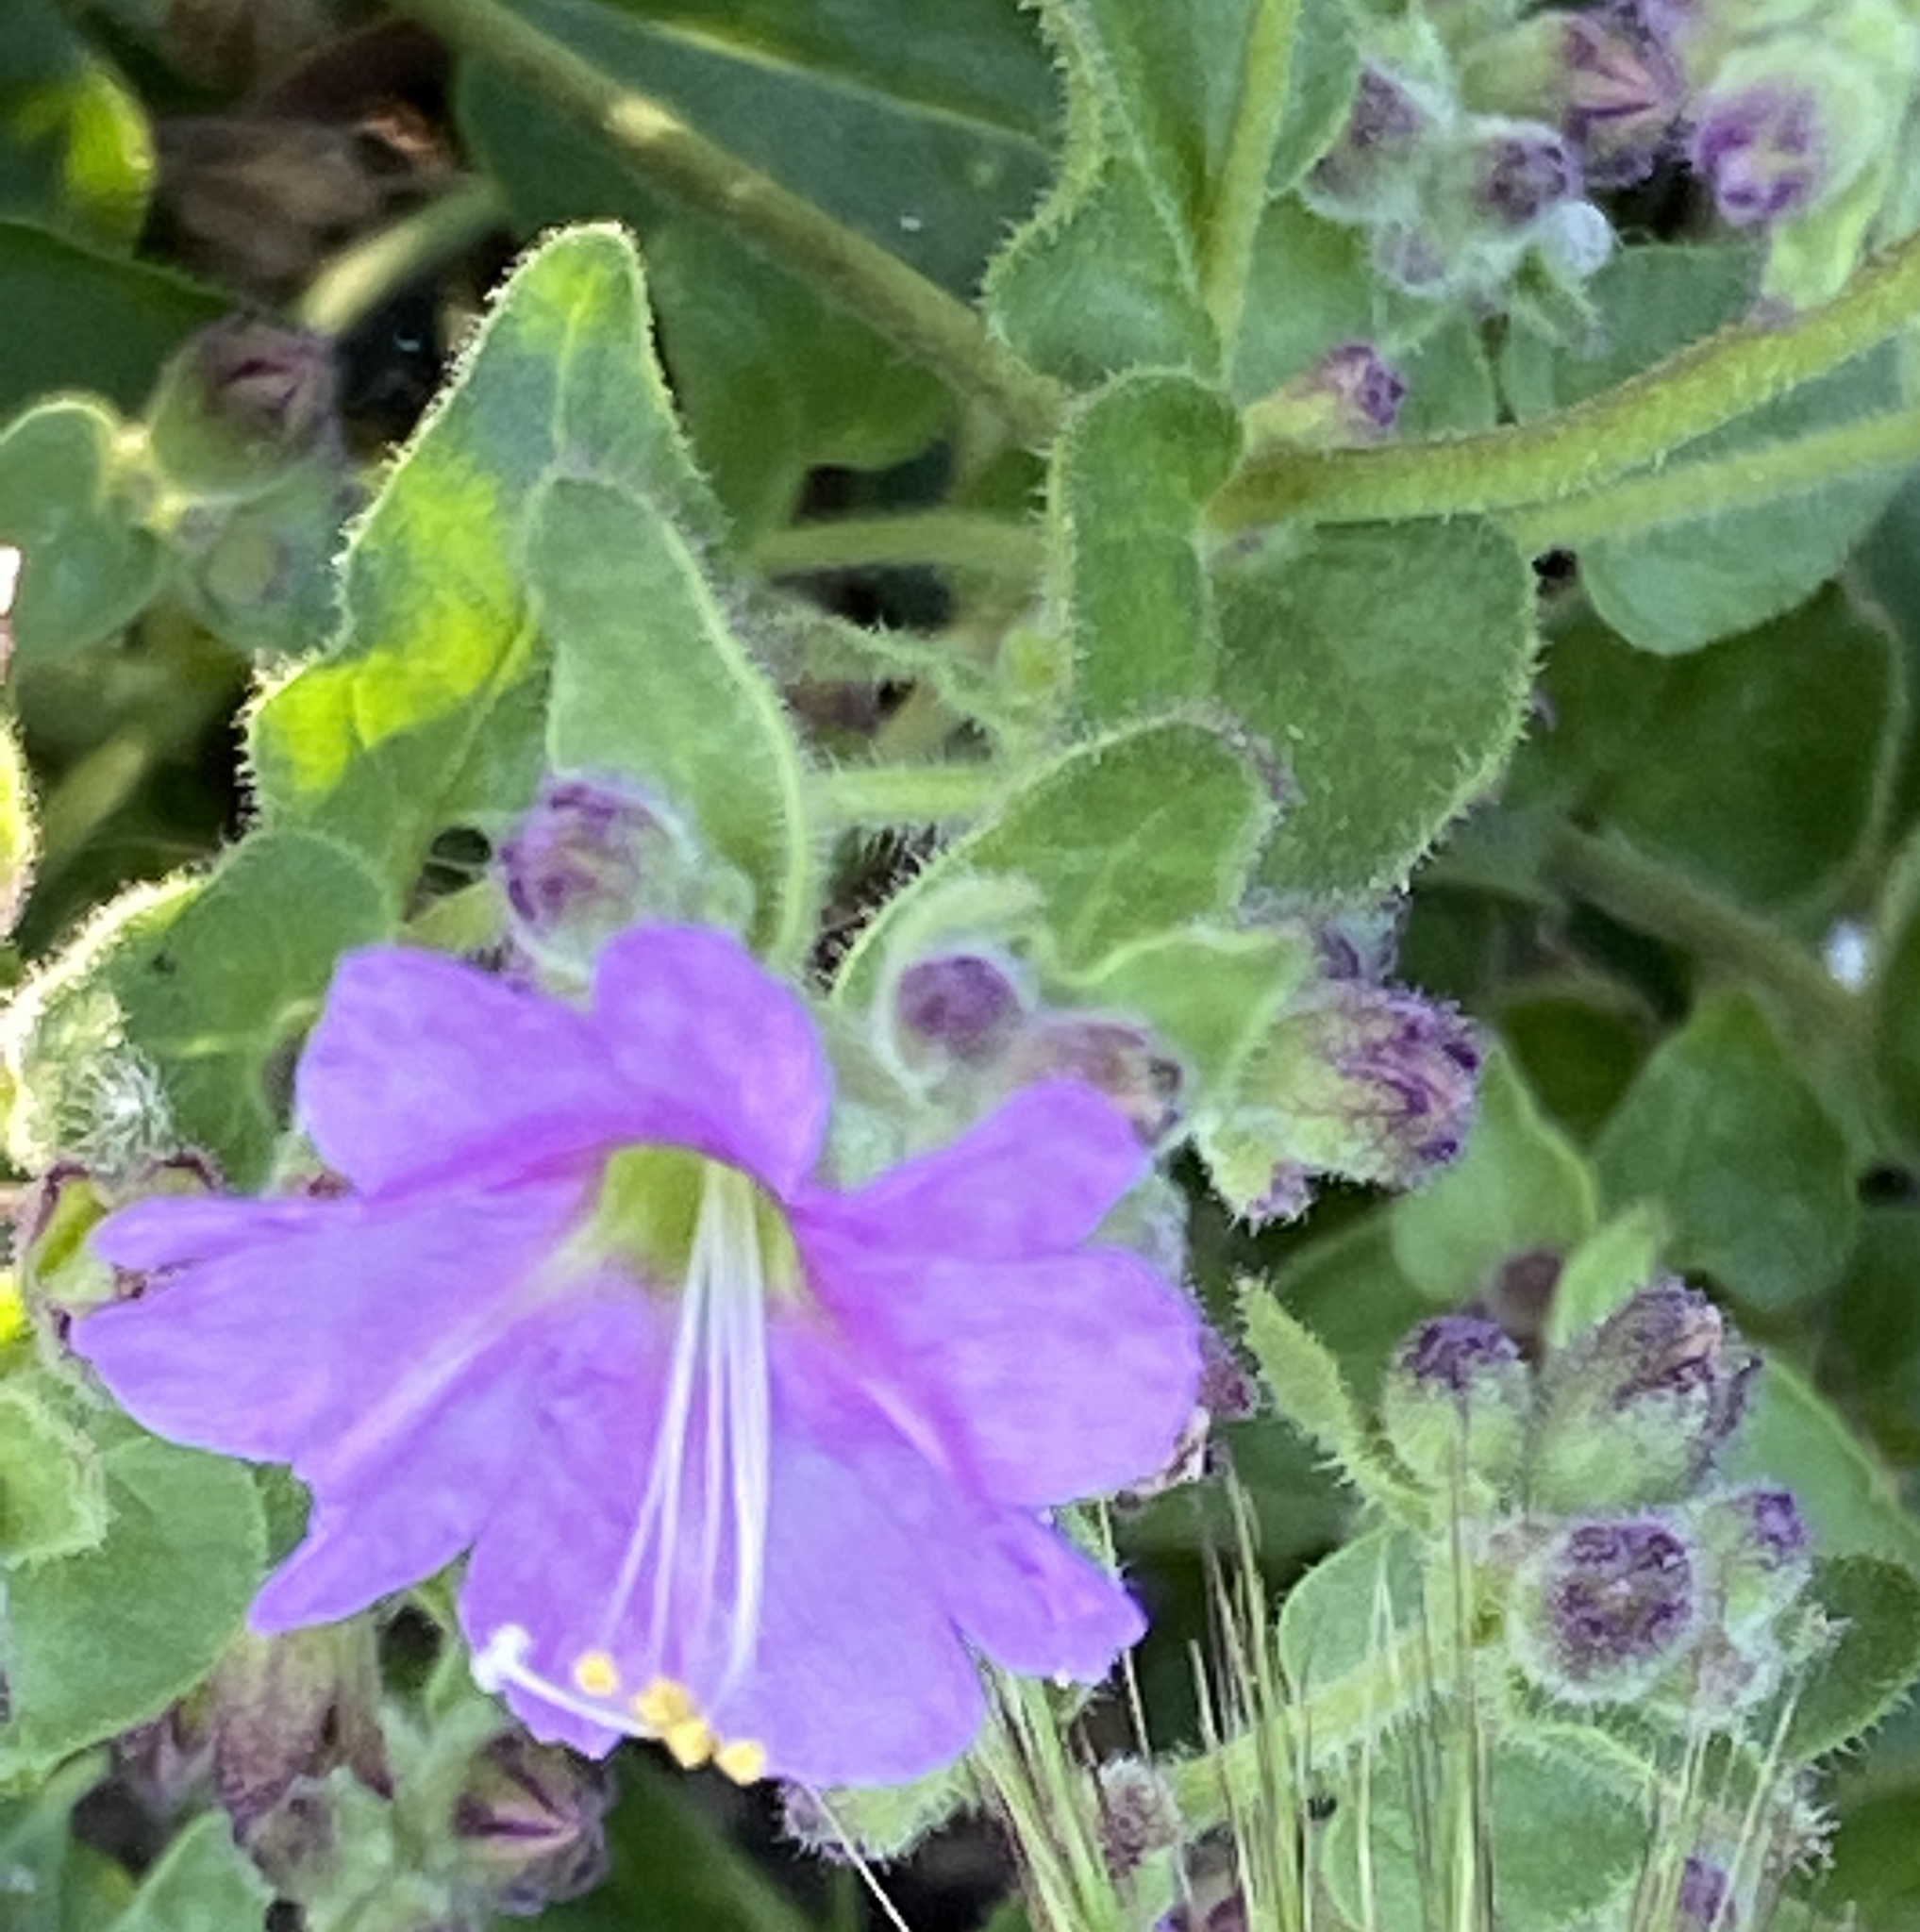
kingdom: Plantae
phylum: Tracheophyta
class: Magnoliopsida
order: Caryophyllales
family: Nyctaginaceae
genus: Mirabilis
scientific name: Mirabilis laevis
